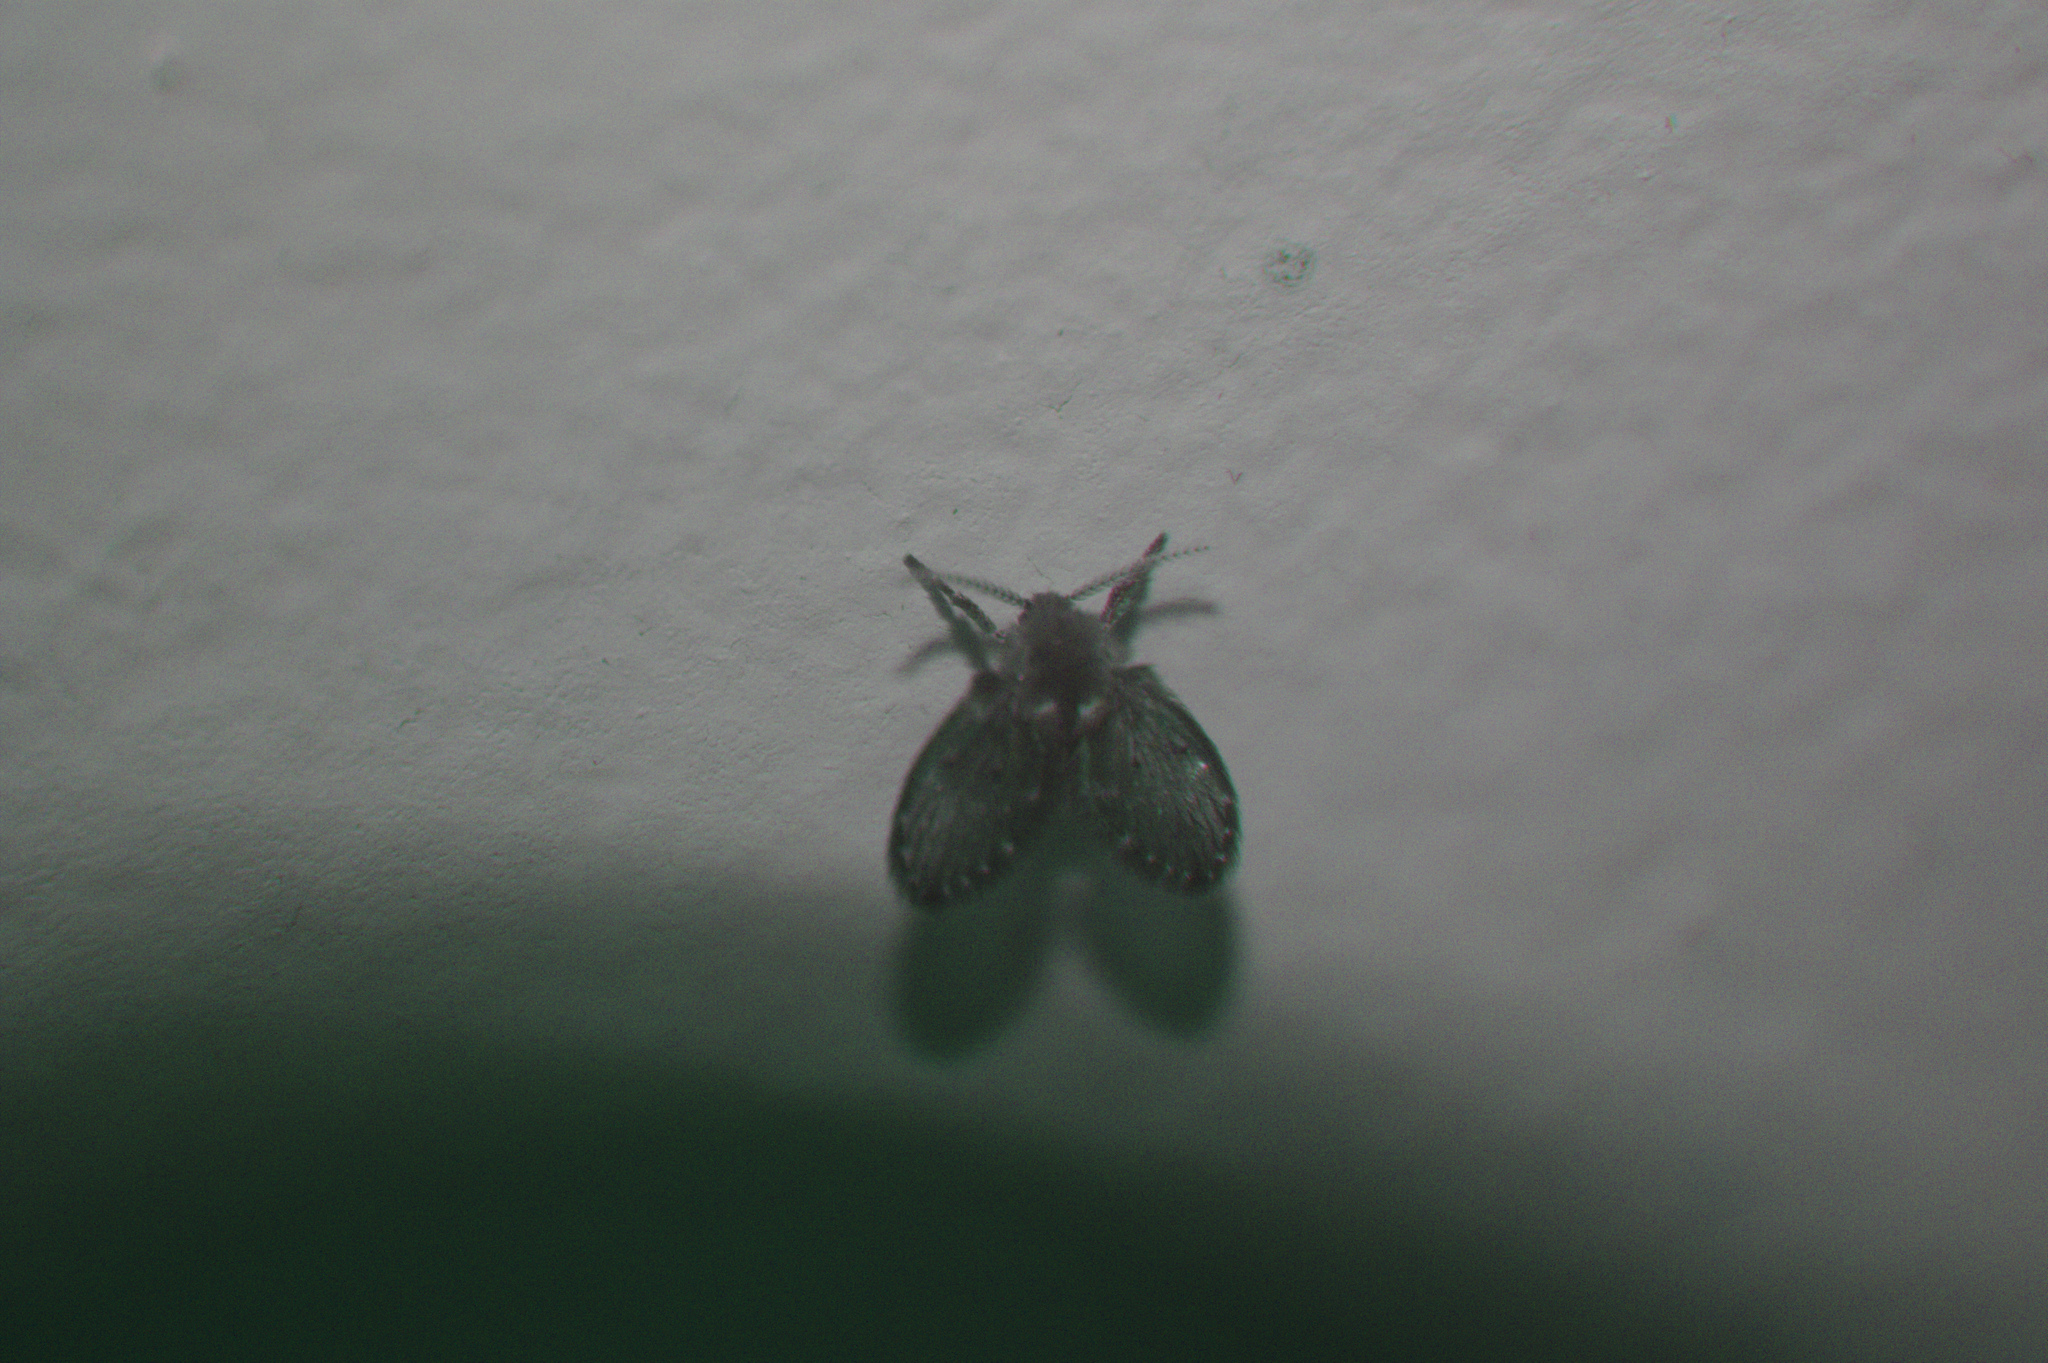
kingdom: Animalia
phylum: Arthropoda
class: Insecta
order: Diptera
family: Psychodidae
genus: Clogmia
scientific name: Clogmia albipunctatus
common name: White-spotted moth fly
